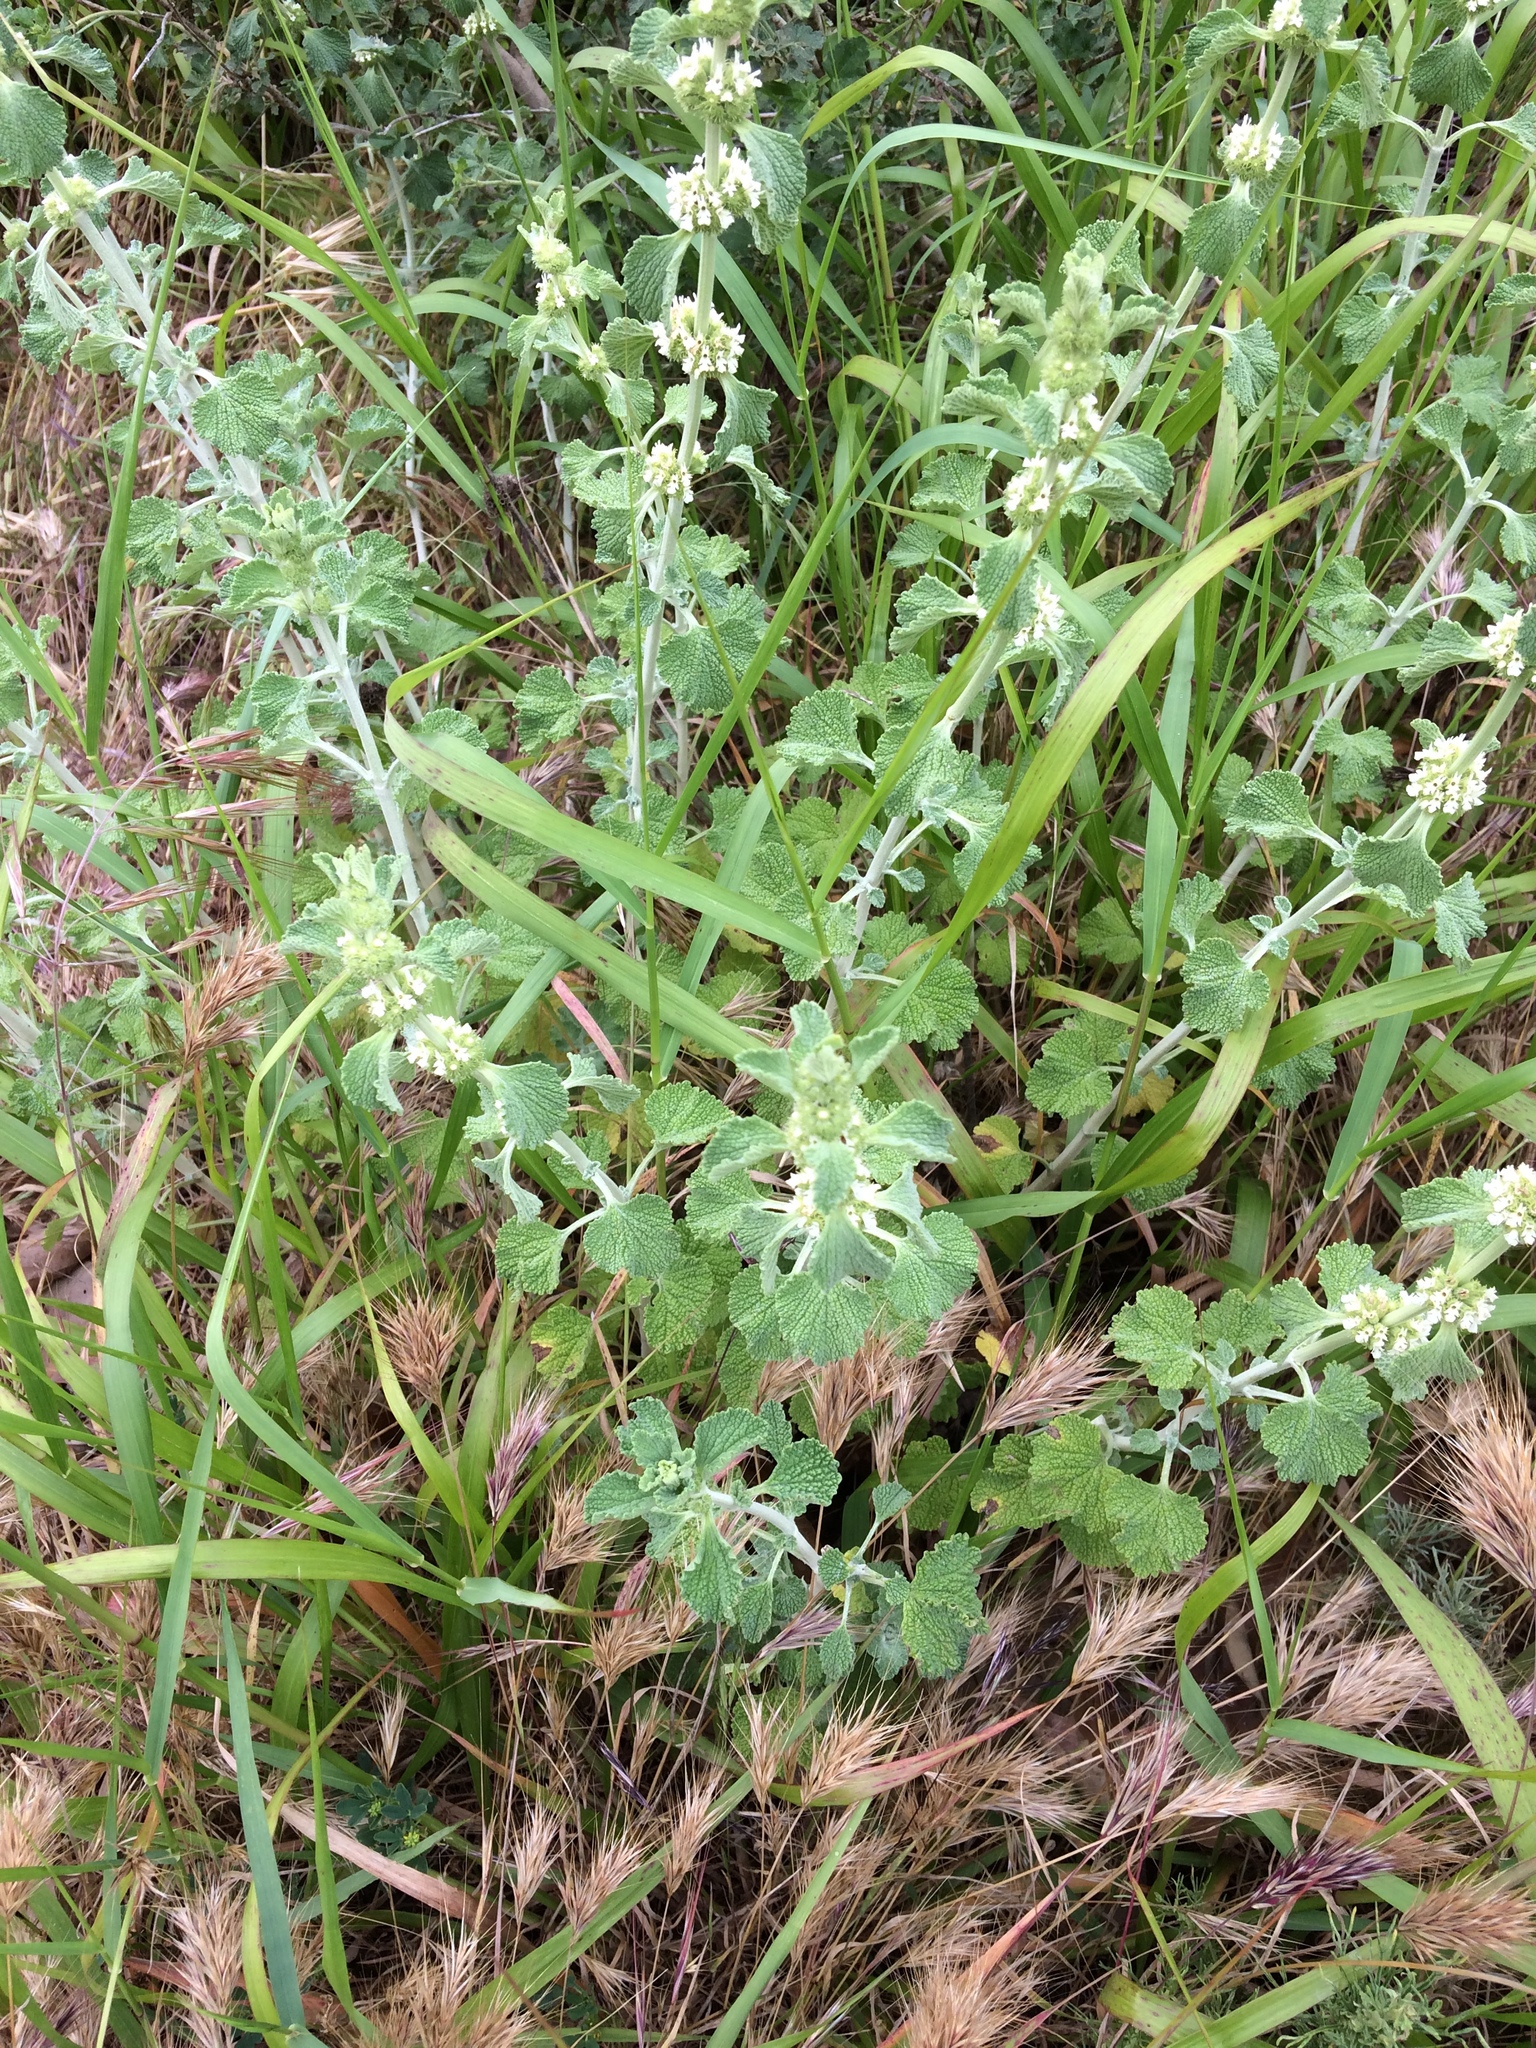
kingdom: Plantae
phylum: Tracheophyta
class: Magnoliopsida
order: Lamiales
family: Lamiaceae
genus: Marrubium
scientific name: Marrubium vulgare
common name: Horehound
